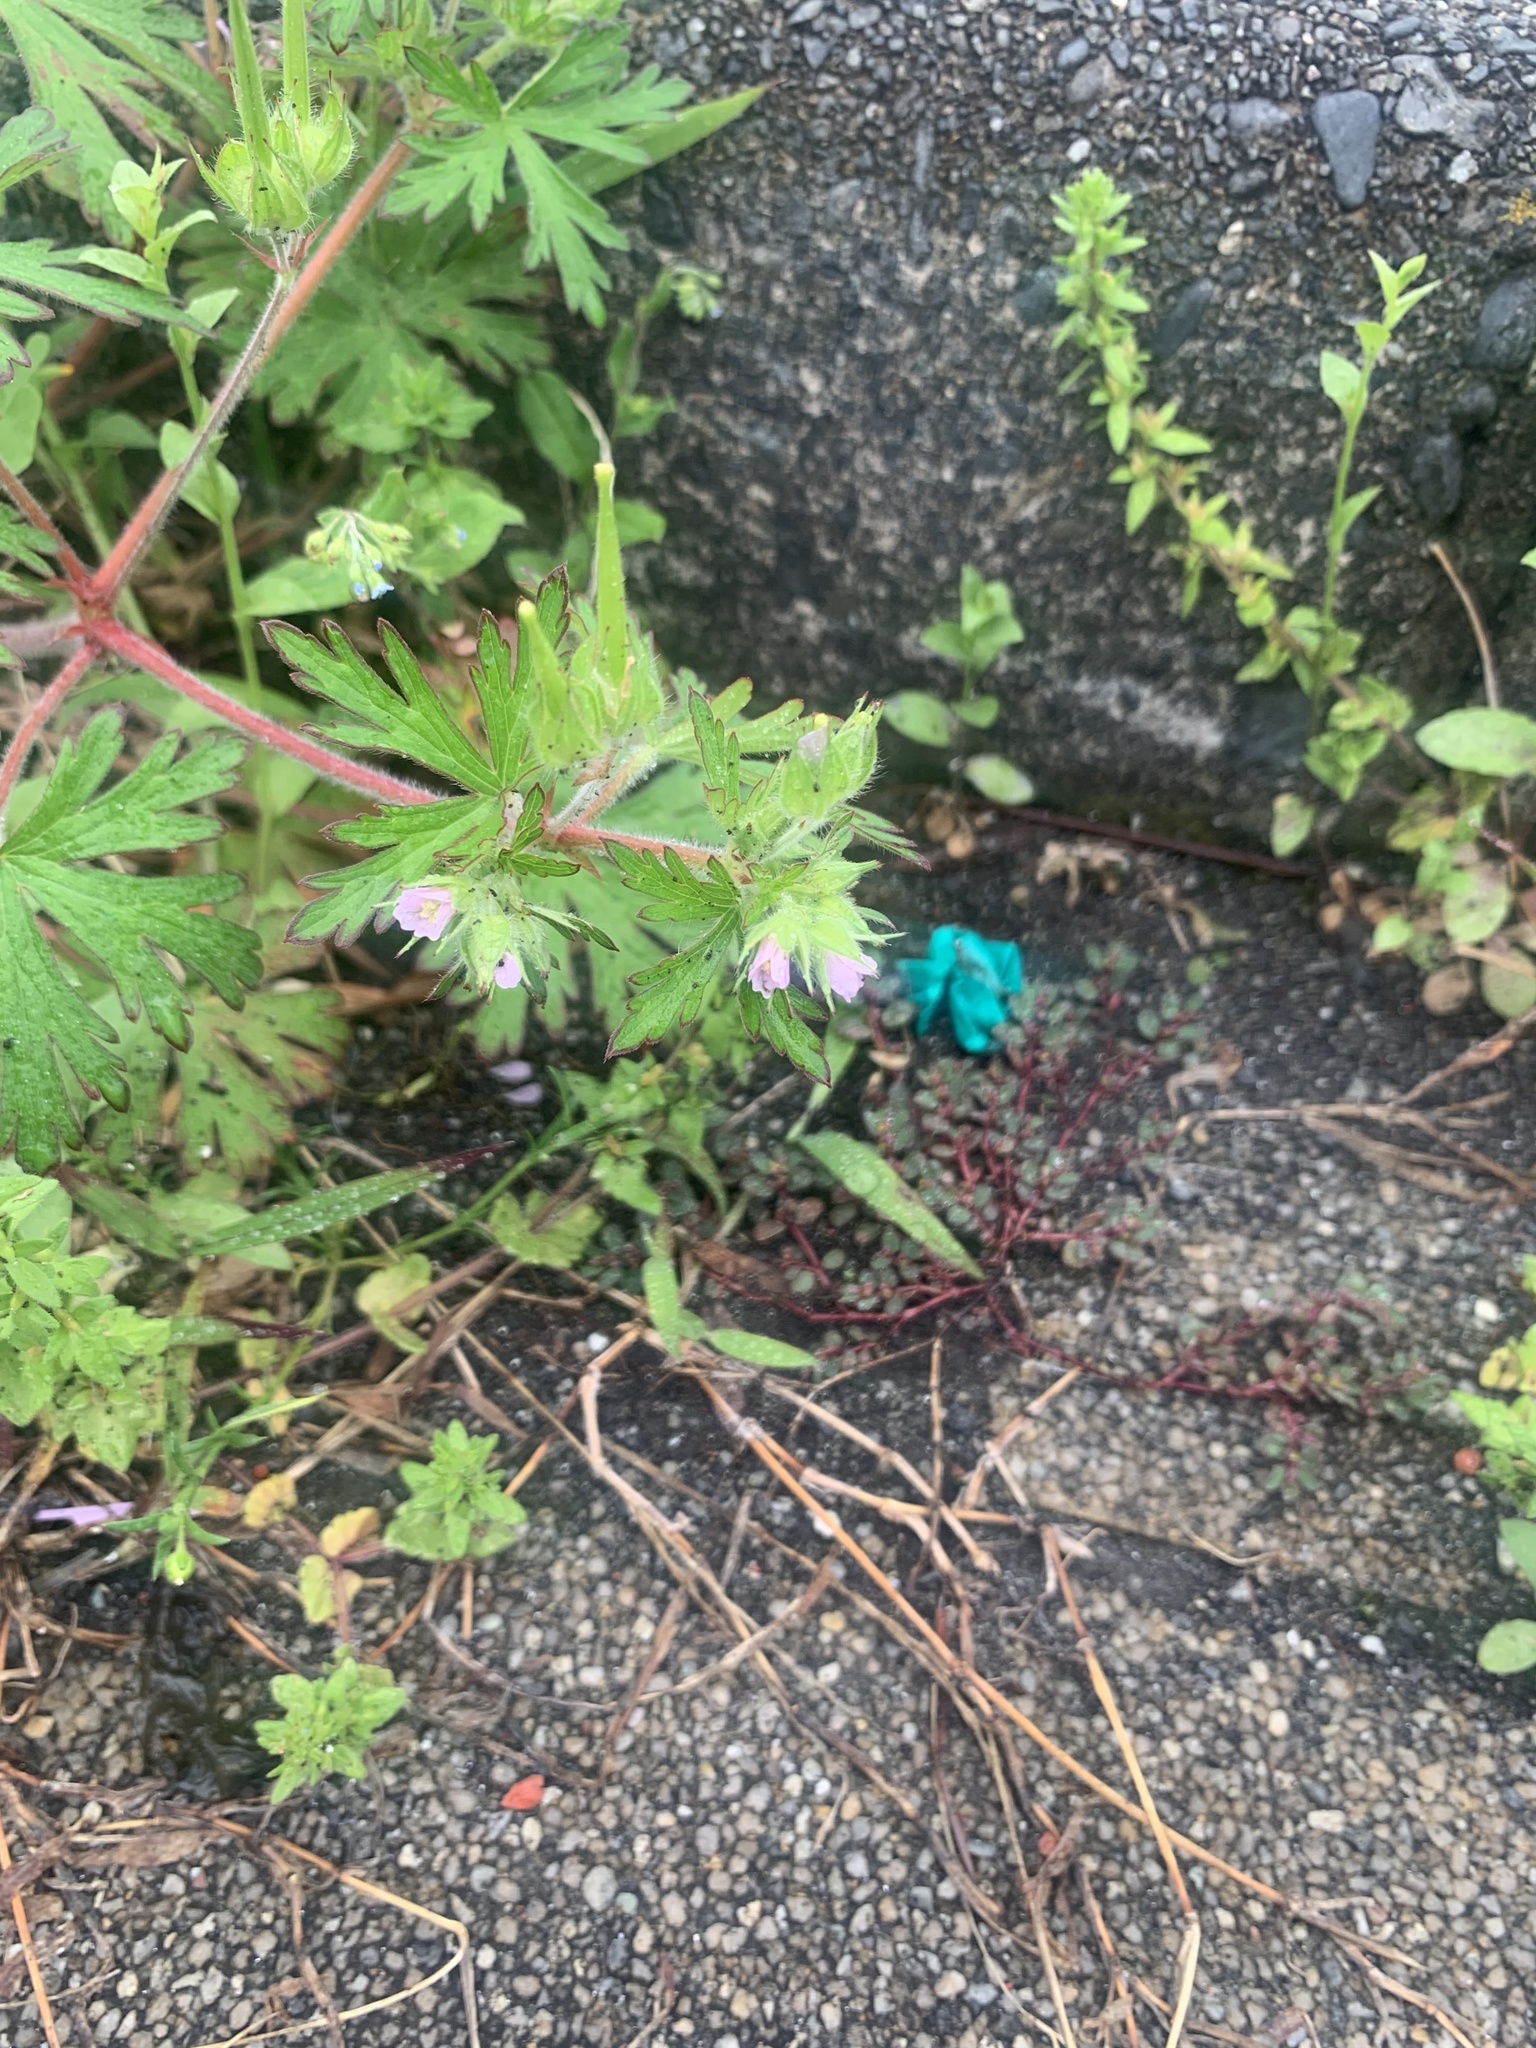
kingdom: Plantae
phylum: Tracheophyta
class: Magnoliopsida
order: Geraniales
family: Geraniaceae
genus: Geranium
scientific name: Geranium carolinianum
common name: Carolina crane's-bill
